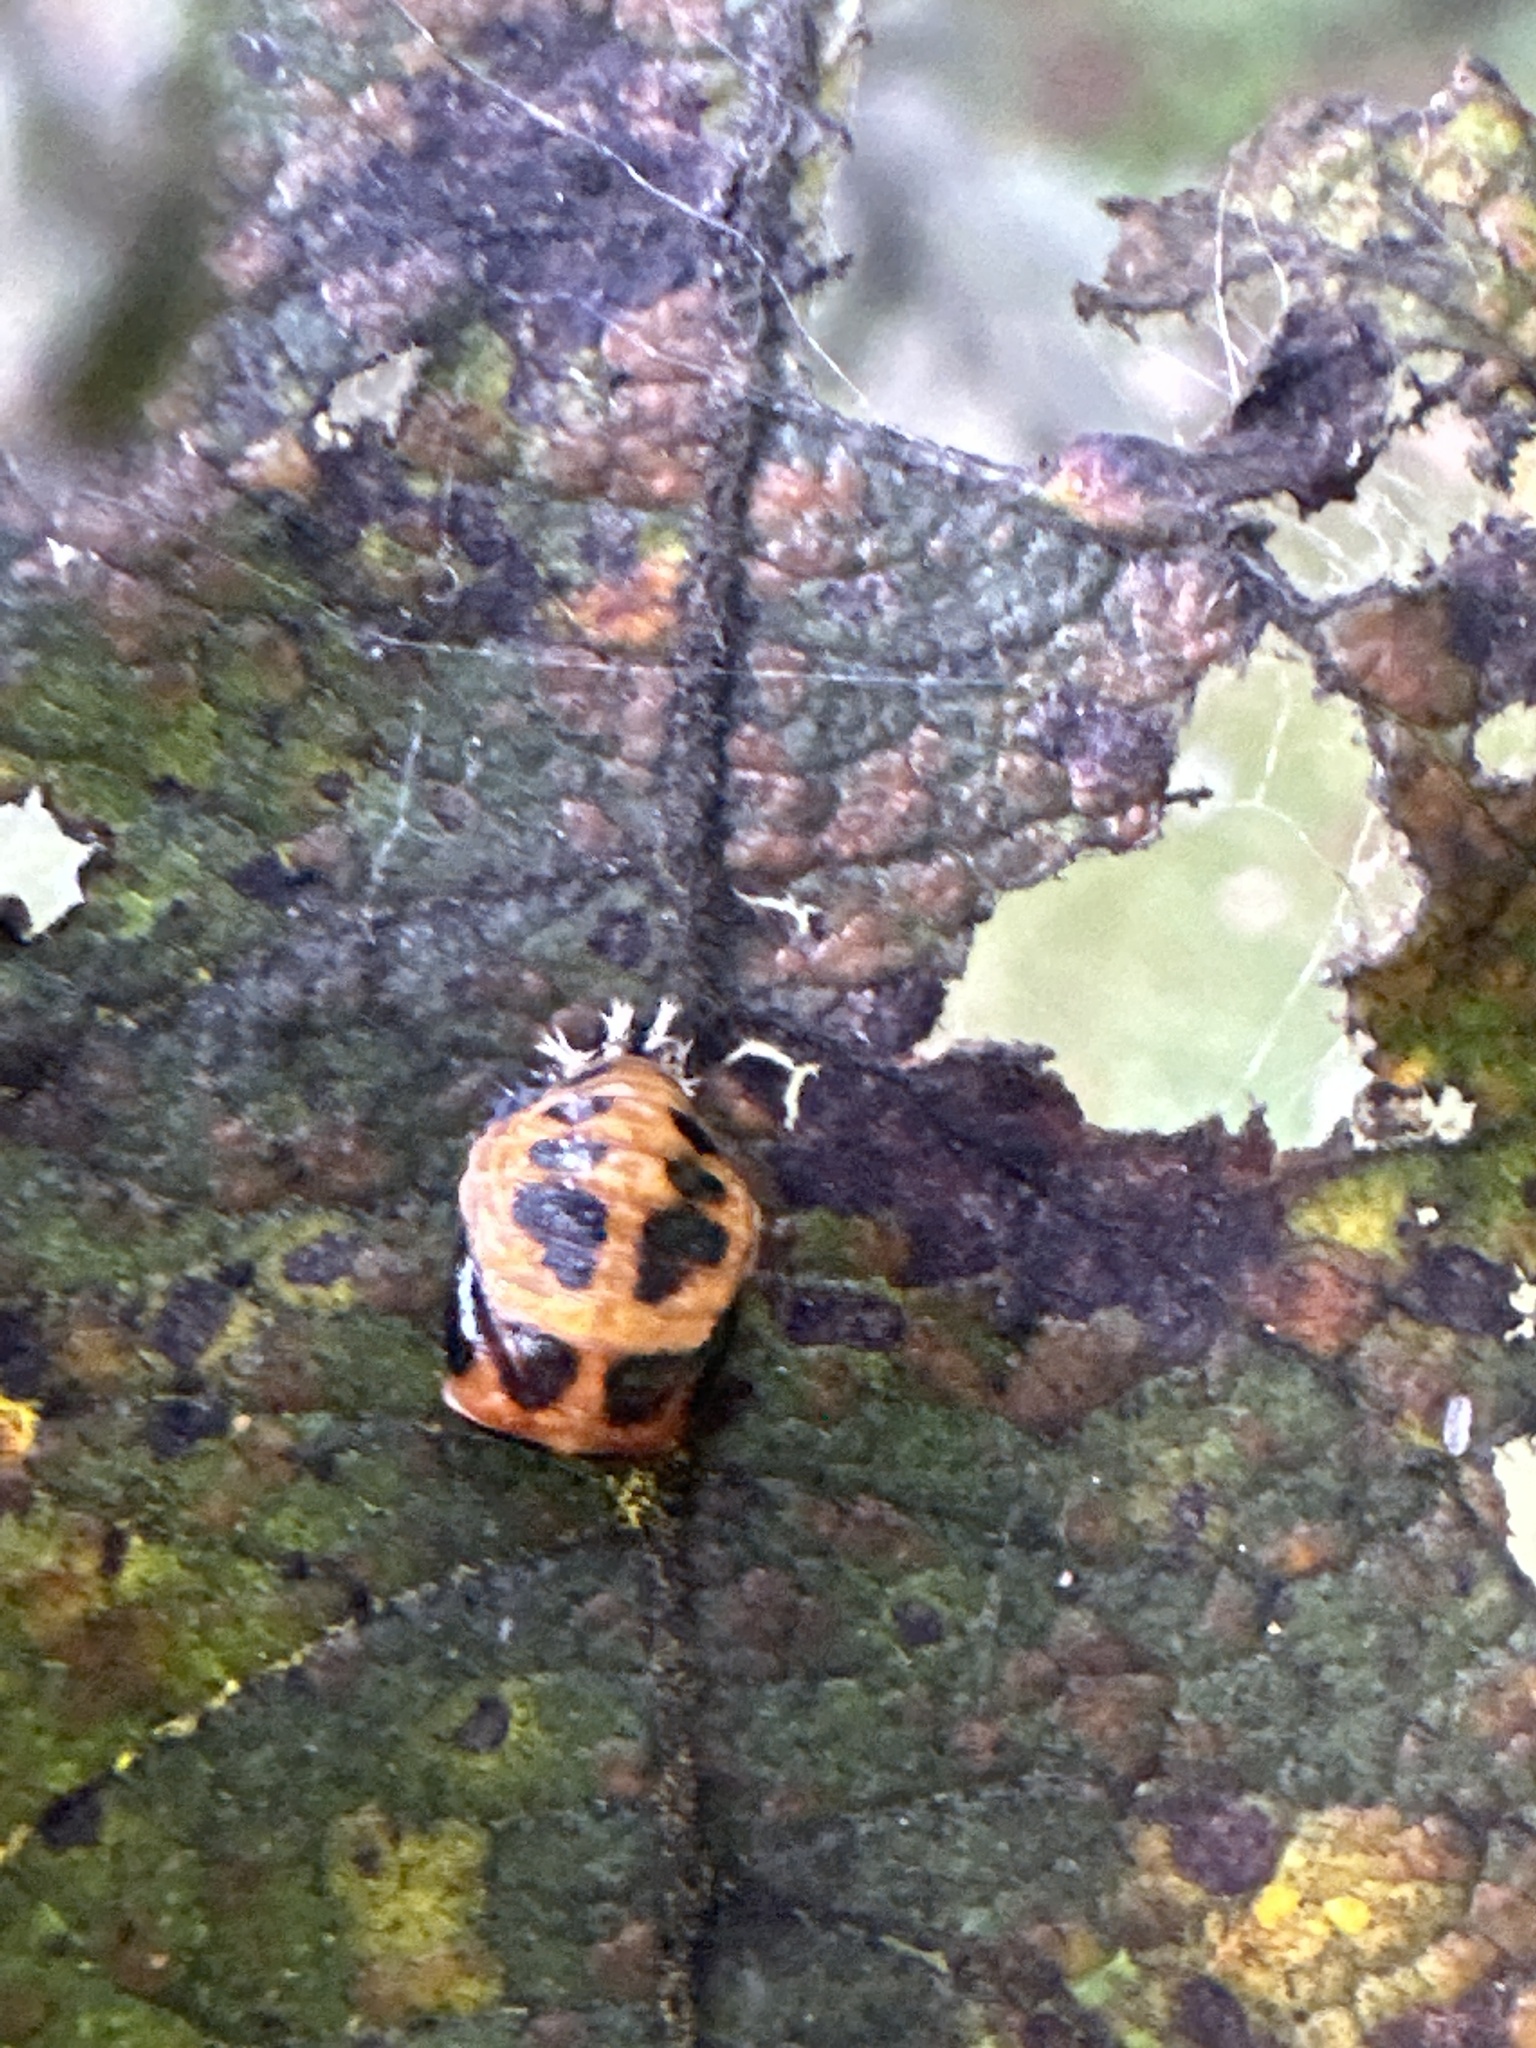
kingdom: Animalia
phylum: Arthropoda
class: Insecta
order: Coleoptera
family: Coccinellidae
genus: Harmonia
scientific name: Harmonia axyridis
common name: Harlequin ladybird
